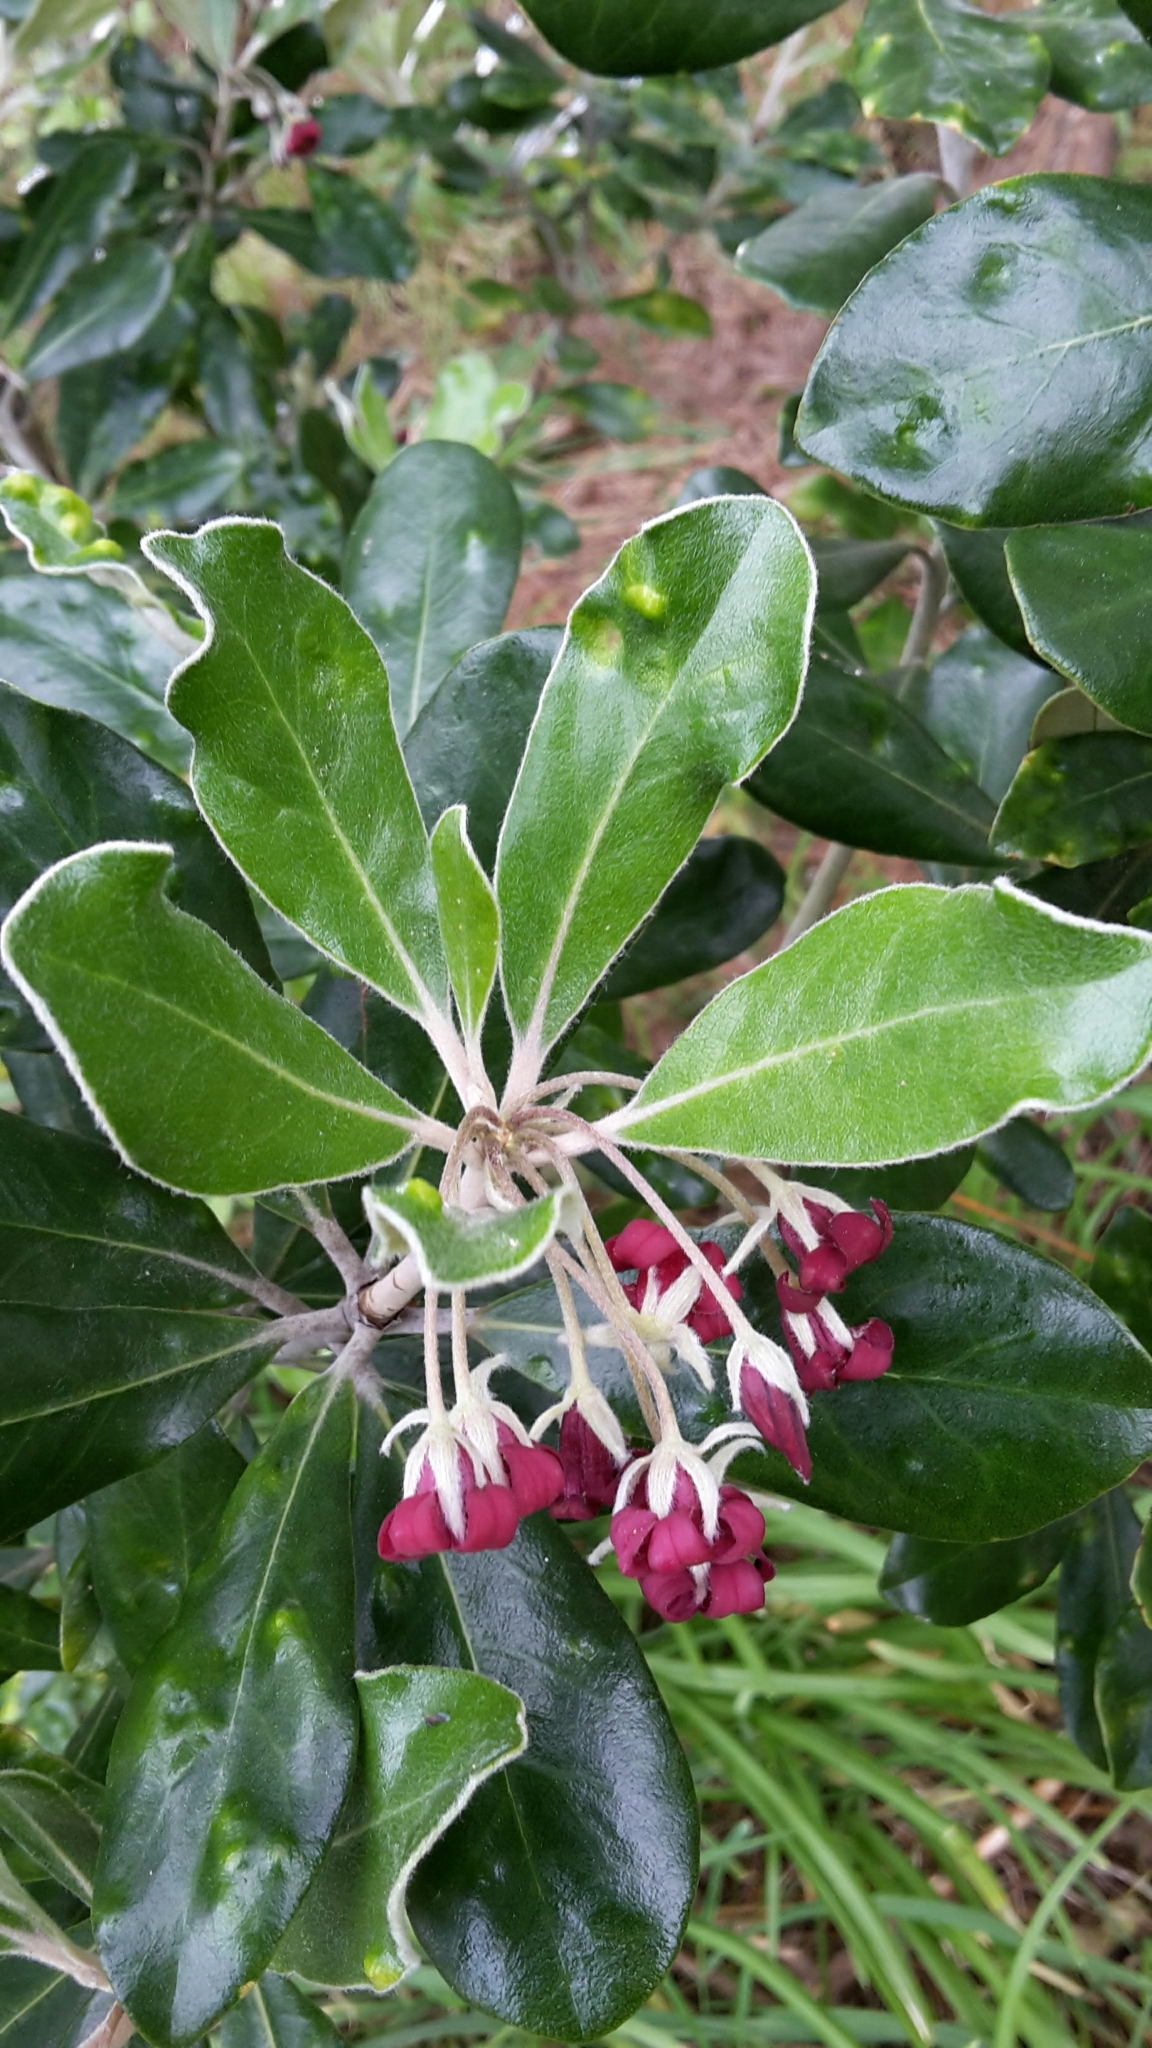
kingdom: Plantae
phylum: Tracheophyta
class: Magnoliopsida
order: Apiales
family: Pittosporaceae
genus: Pittosporum
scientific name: Pittosporum crassifolium
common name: Karo
